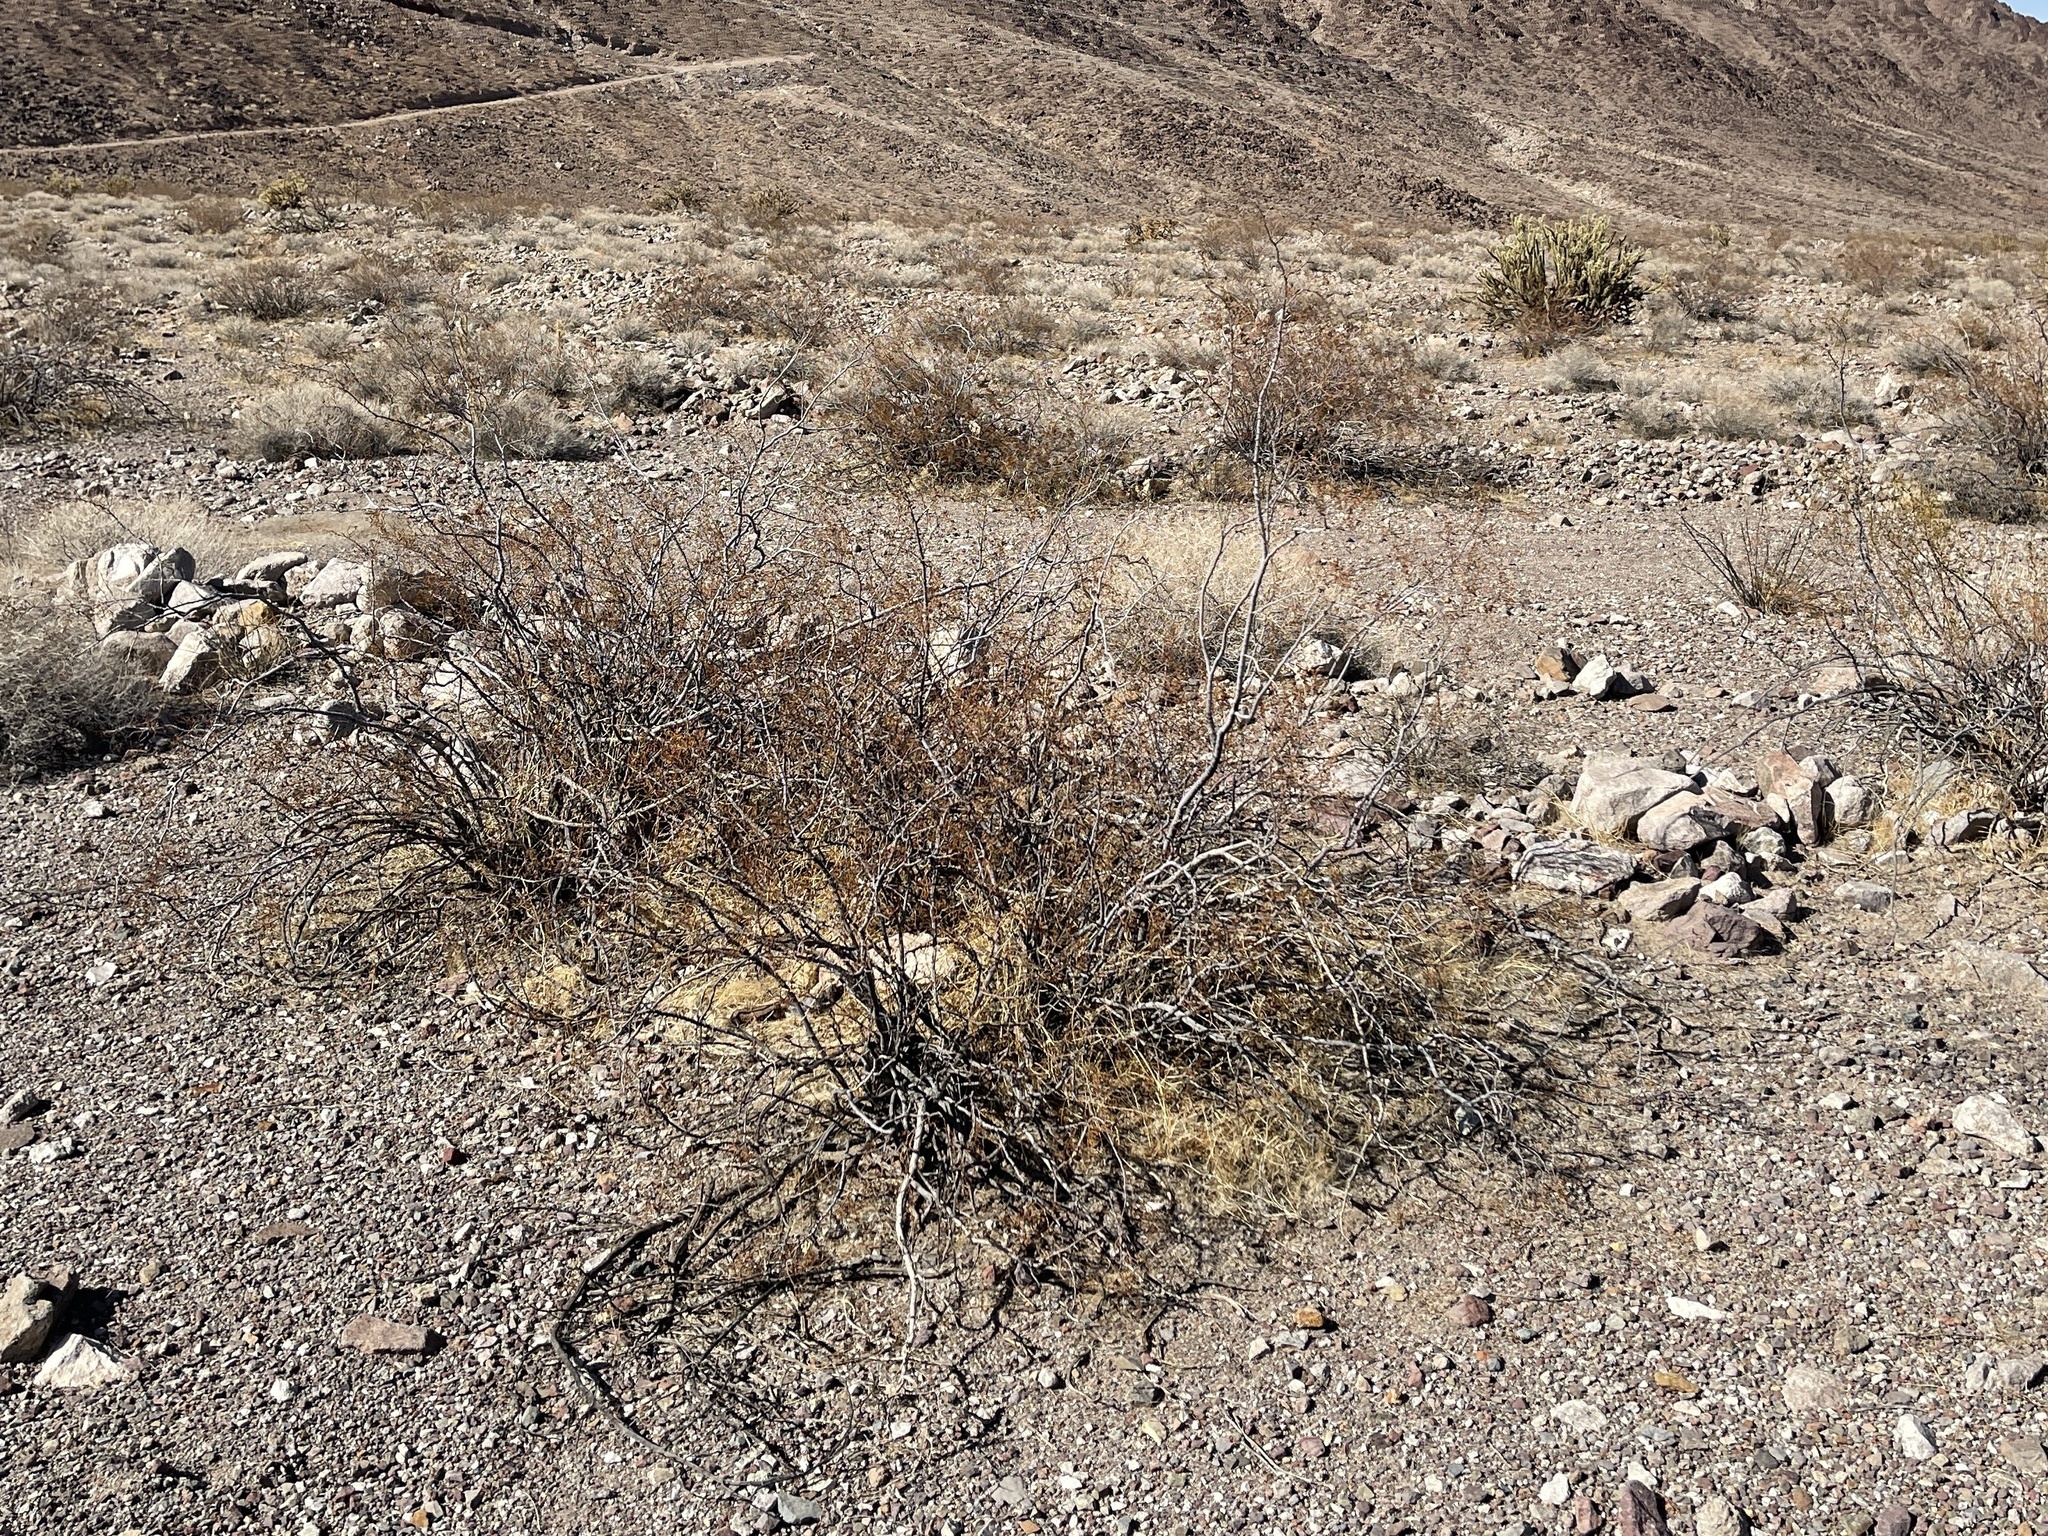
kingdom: Plantae
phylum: Tracheophyta
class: Magnoliopsida
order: Zygophyllales
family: Zygophyllaceae
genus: Larrea
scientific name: Larrea tridentata
